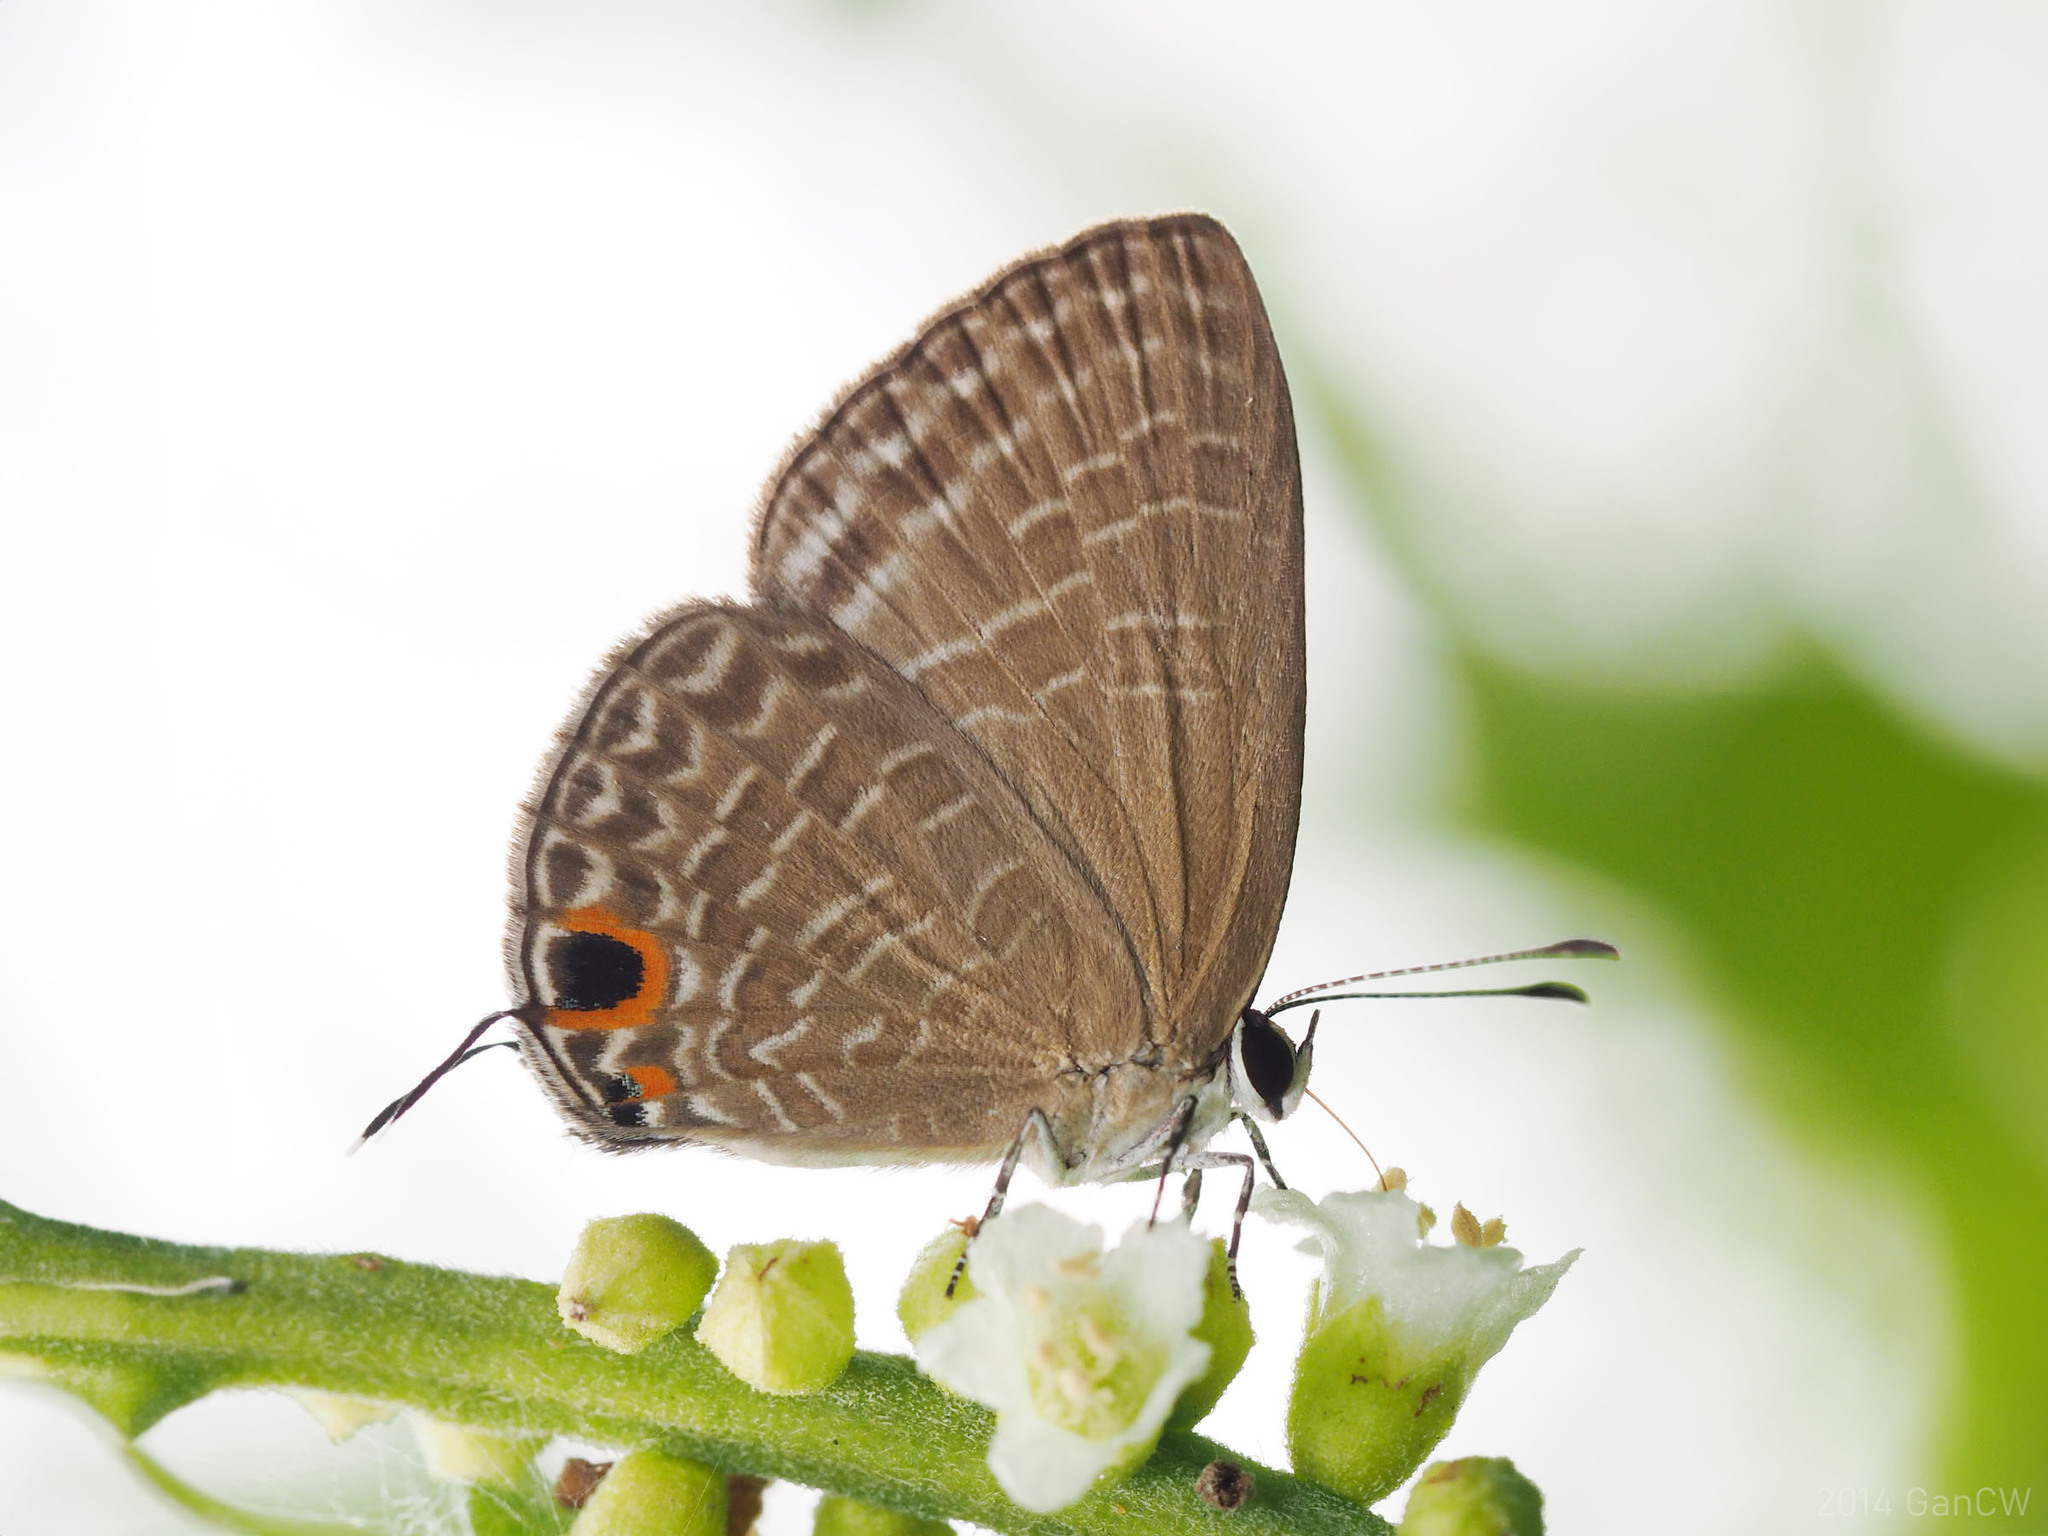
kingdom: Animalia
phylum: Arthropoda
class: Insecta
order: Lepidoptera
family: Lycaenidae
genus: Jamides
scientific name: Jamides bochus
